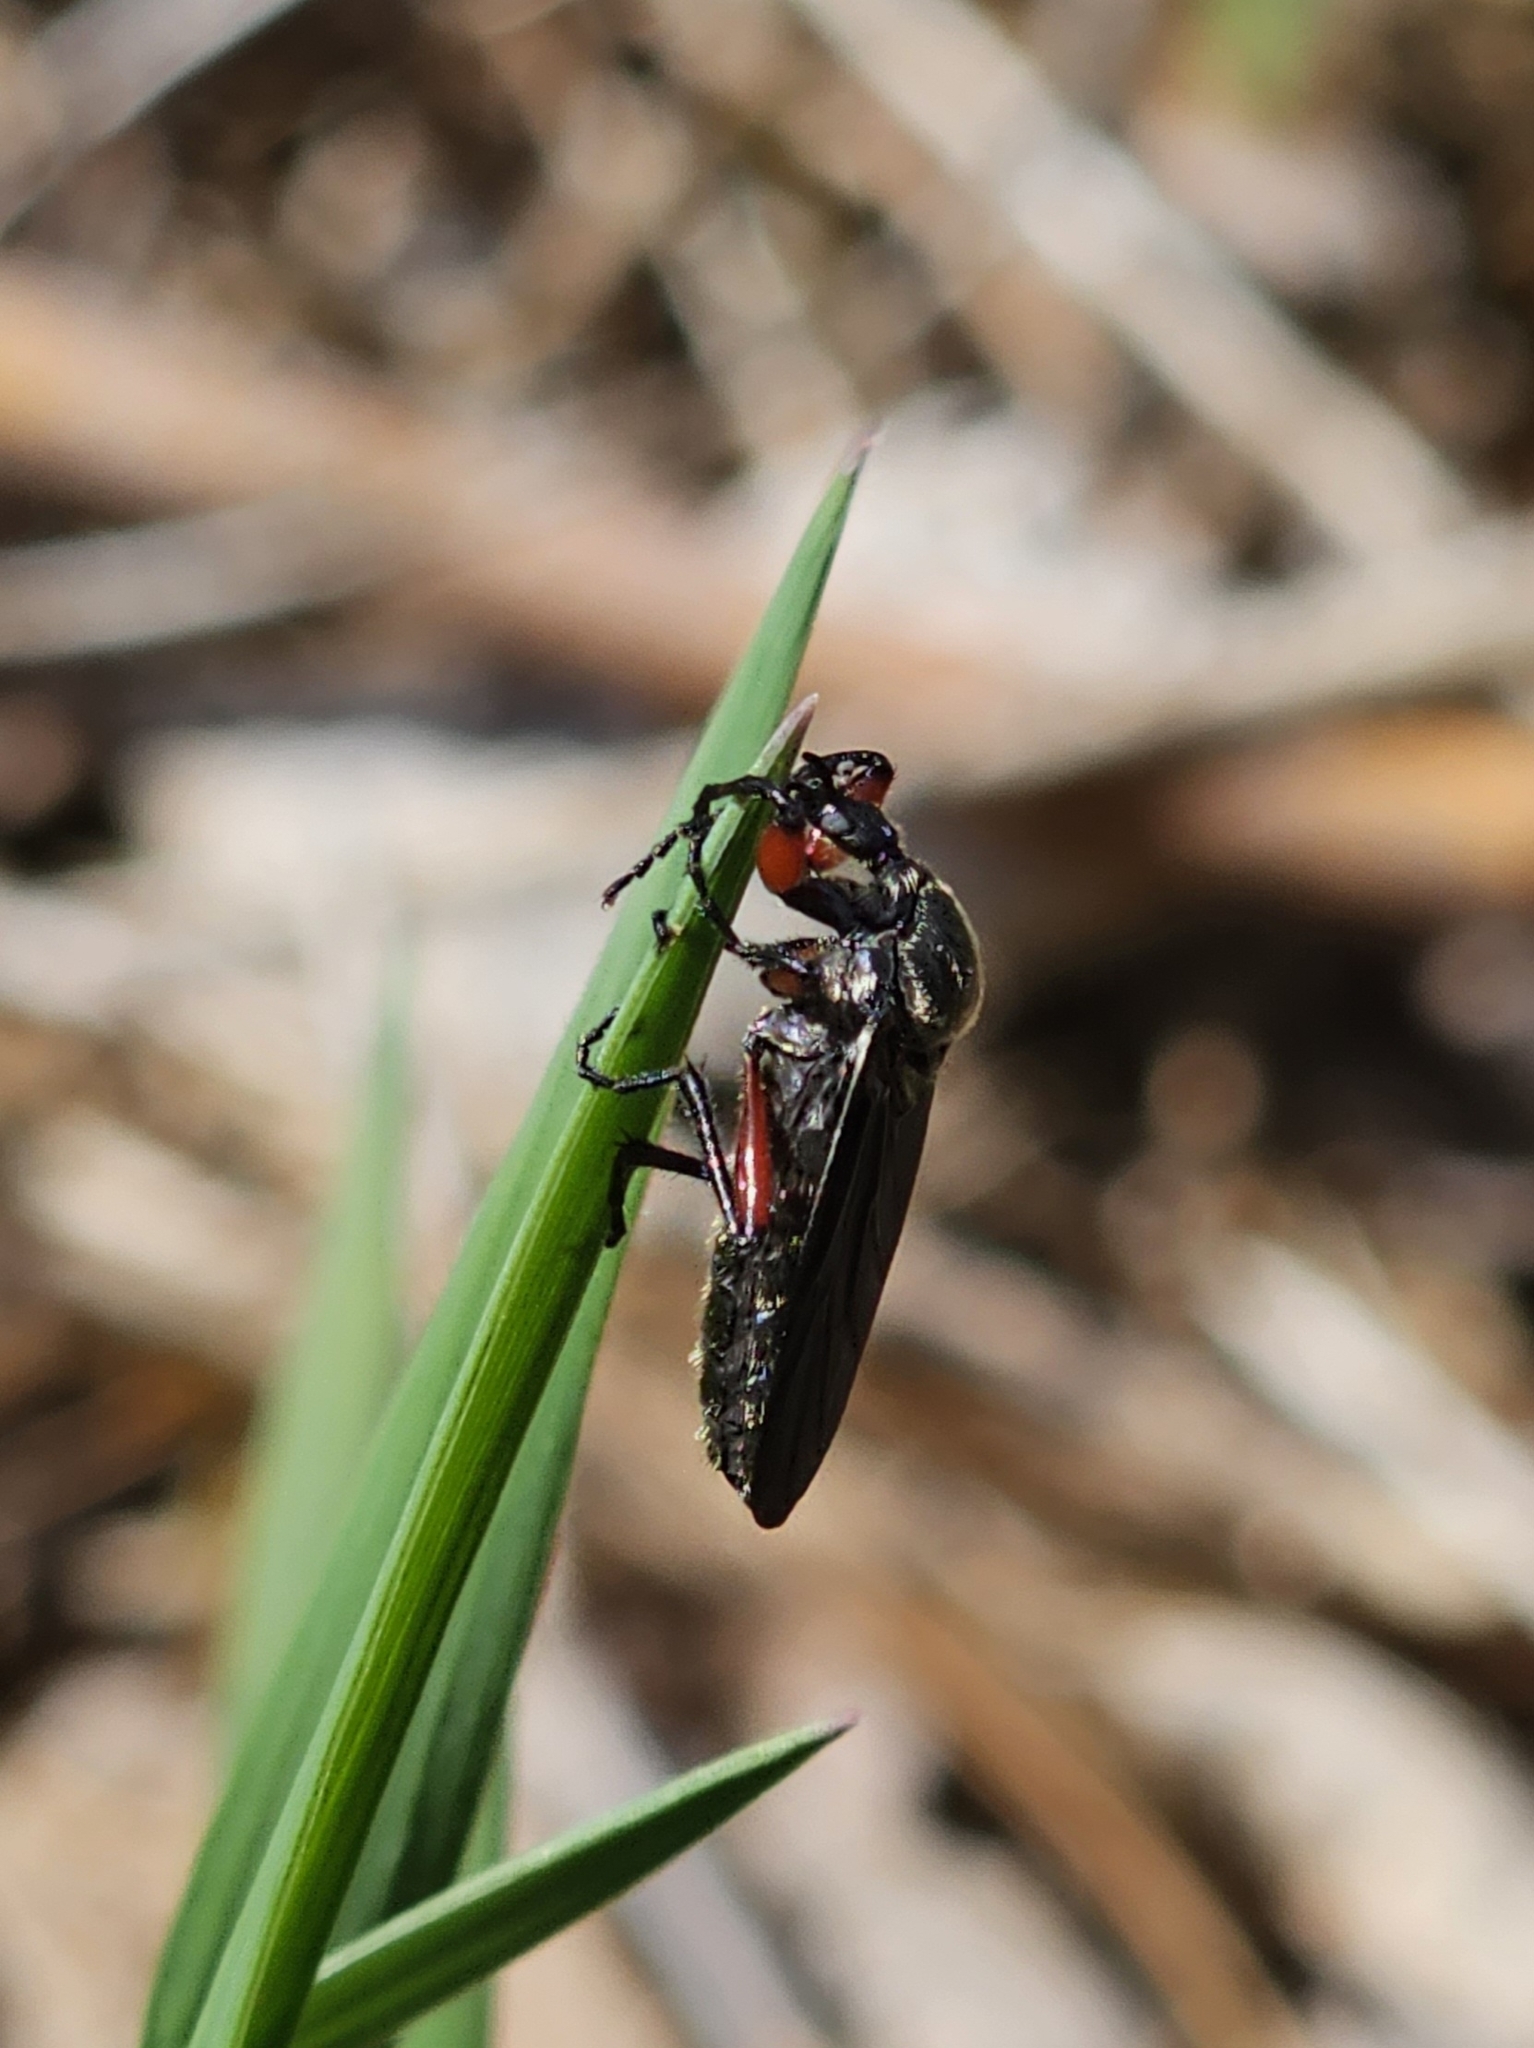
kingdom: Animalia
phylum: Arthropoda
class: Insecta
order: Diptera
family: Bibionidae
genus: Bibio
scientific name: Bibio femoratus
